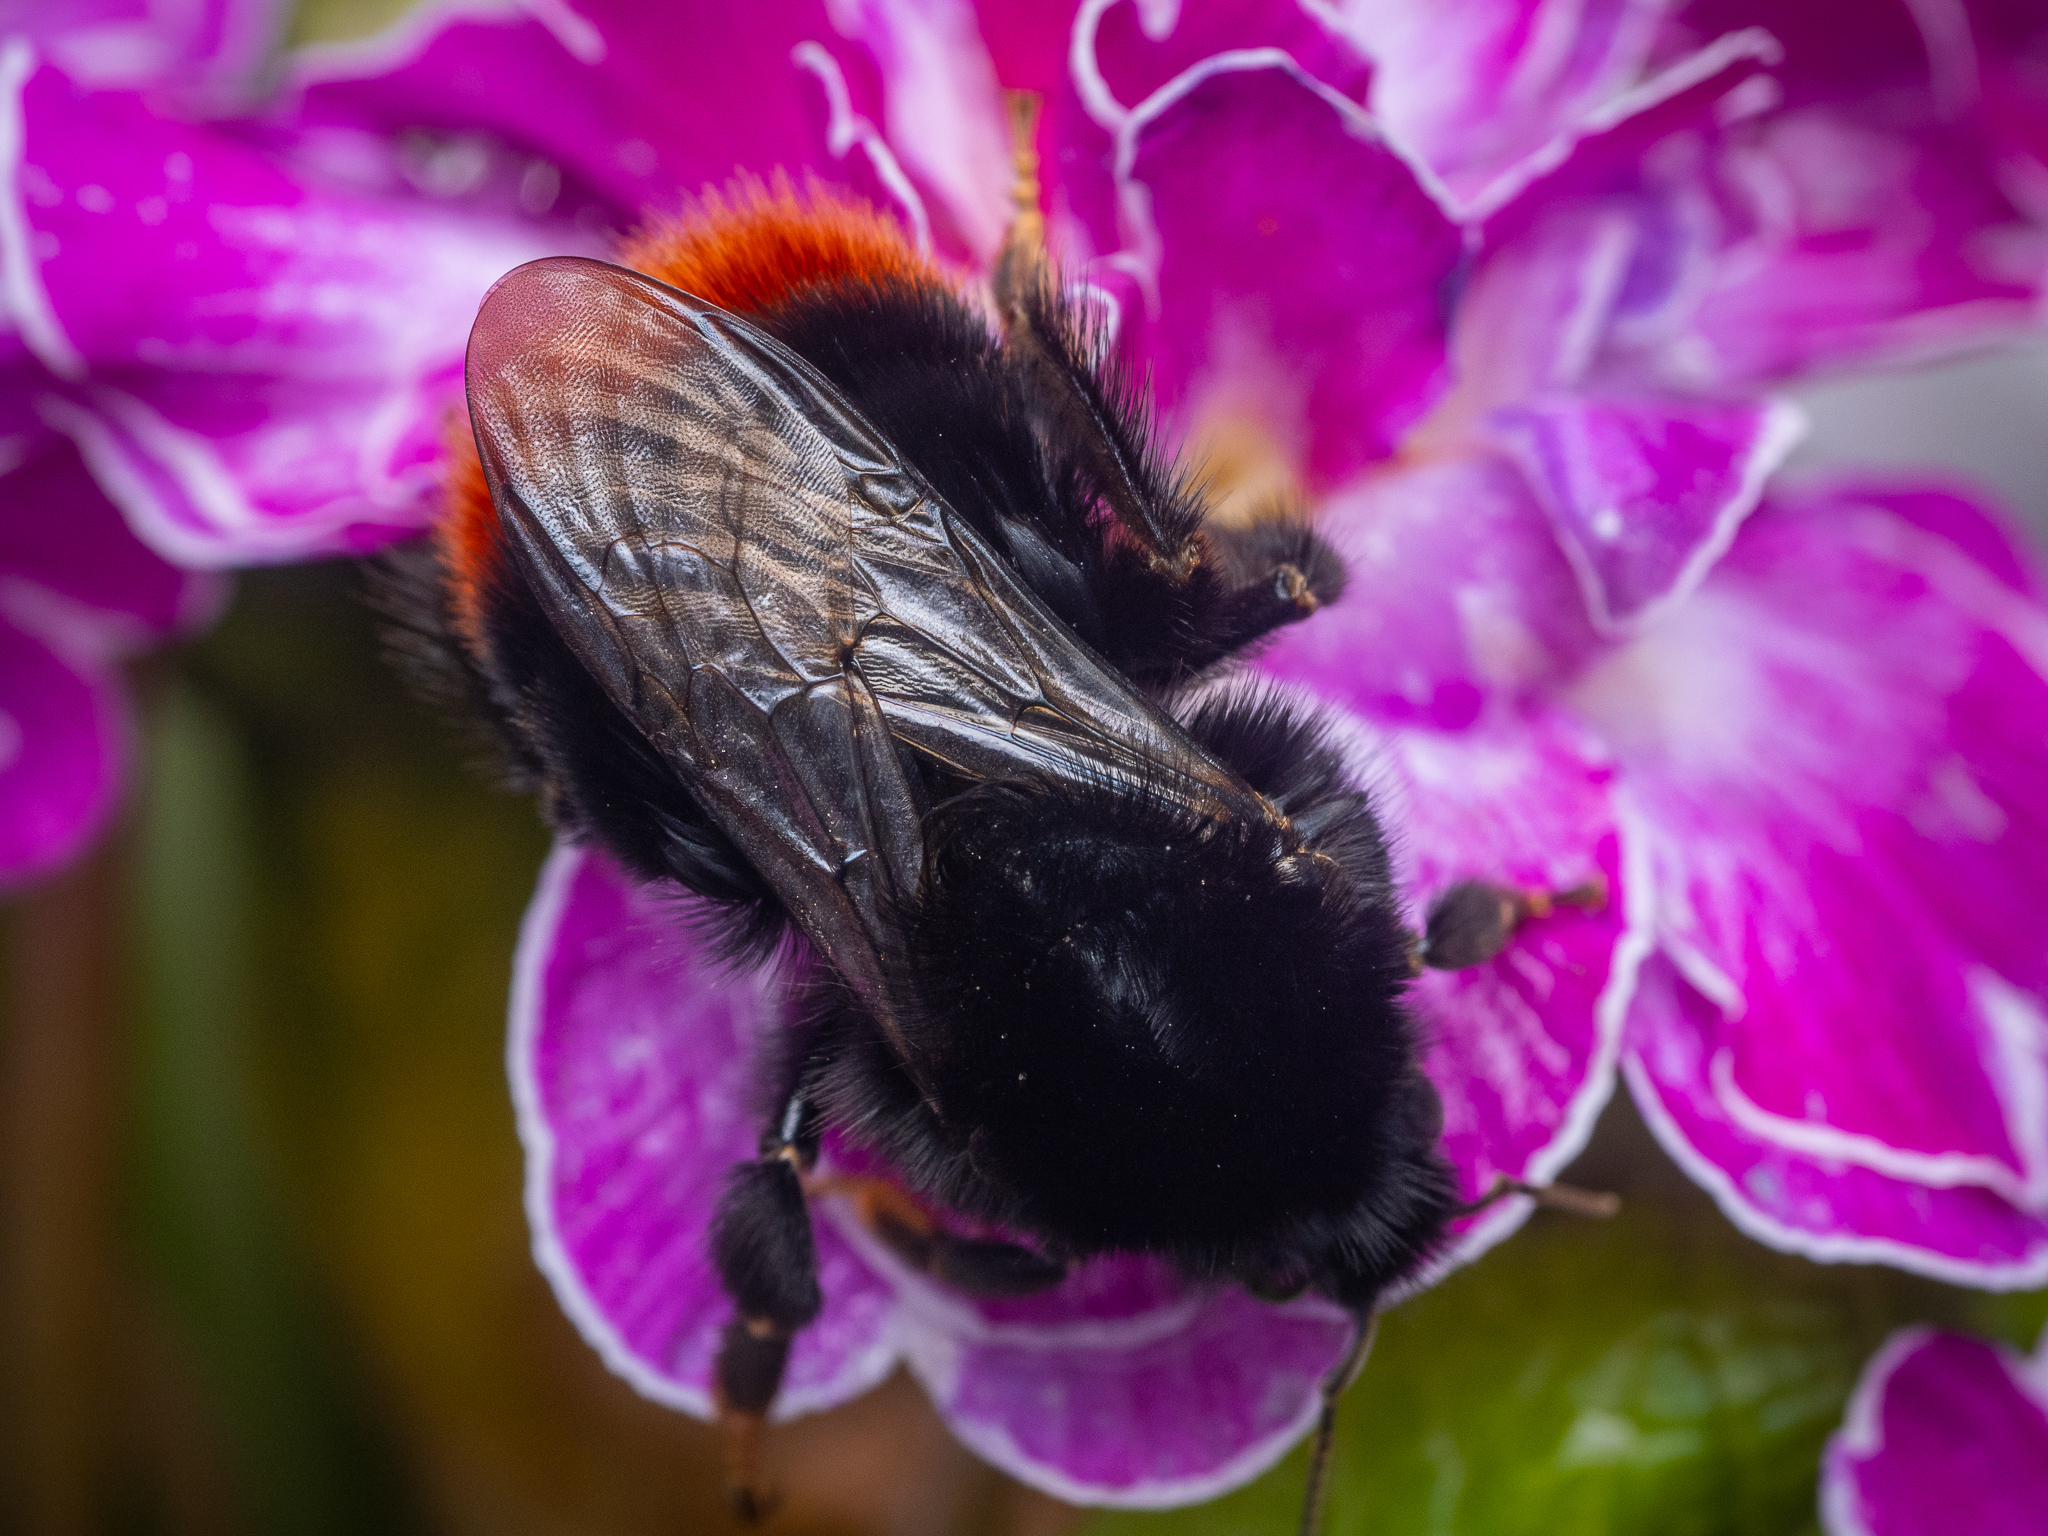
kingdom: Animalia
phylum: Arthropoda
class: Insecta
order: Hymenoptera
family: Apidae
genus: Bombus
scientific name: Bombus lapidarius
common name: Large red-tailed humble-bee
